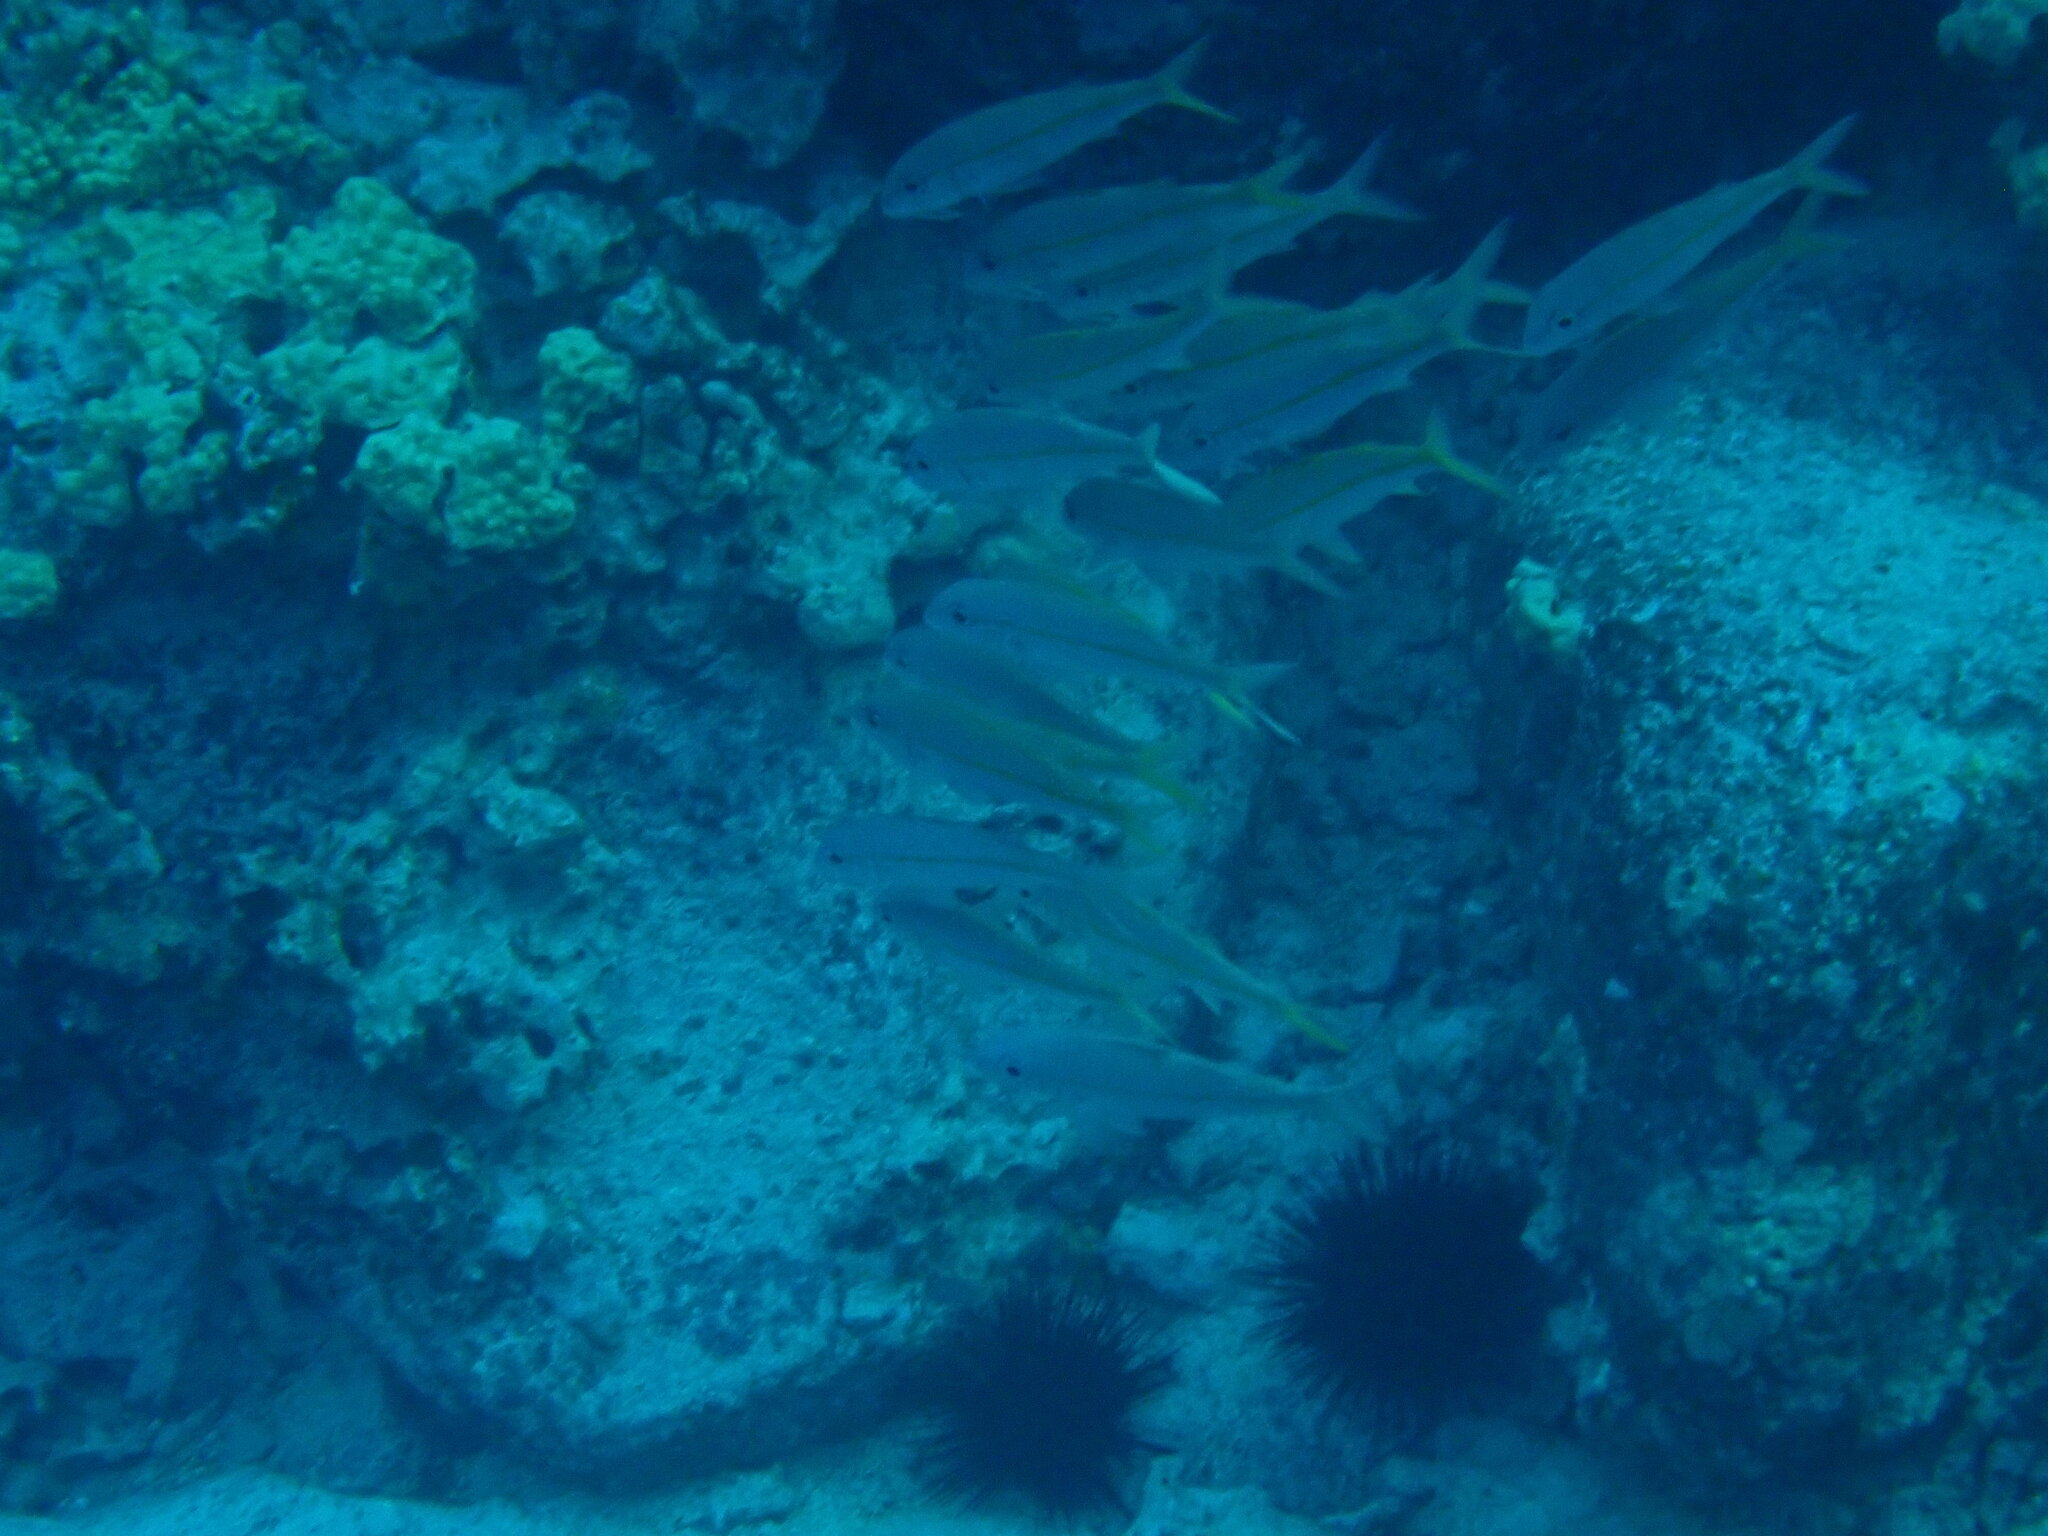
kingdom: Animalia
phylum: Chordata
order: Perciformes
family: Mullidae
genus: Mulloidichthys
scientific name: Mulloidichthys vanicolensis
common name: Yellowfin goatfish
